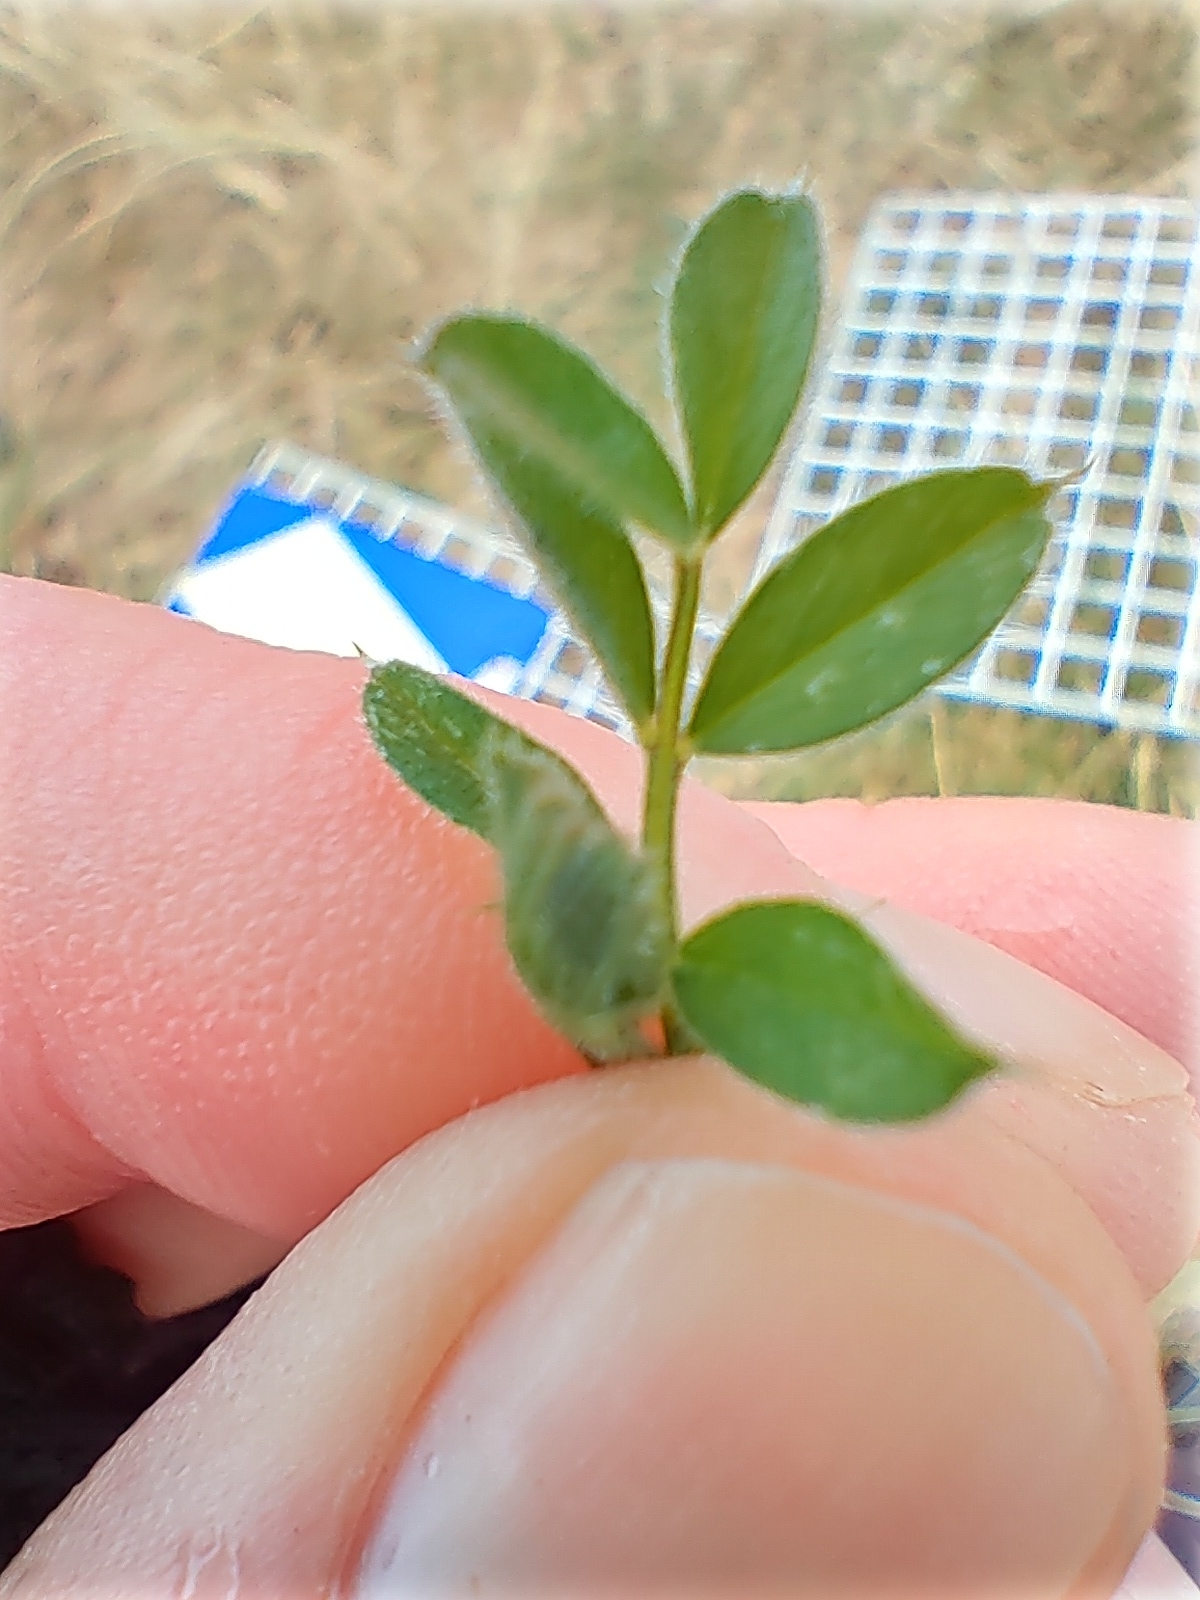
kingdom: Plantae
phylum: Tracheophyta
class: Magnoliopsida
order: Fabales
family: Fabaceae
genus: Vicia
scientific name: Vicia sativa
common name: Garden vetch
